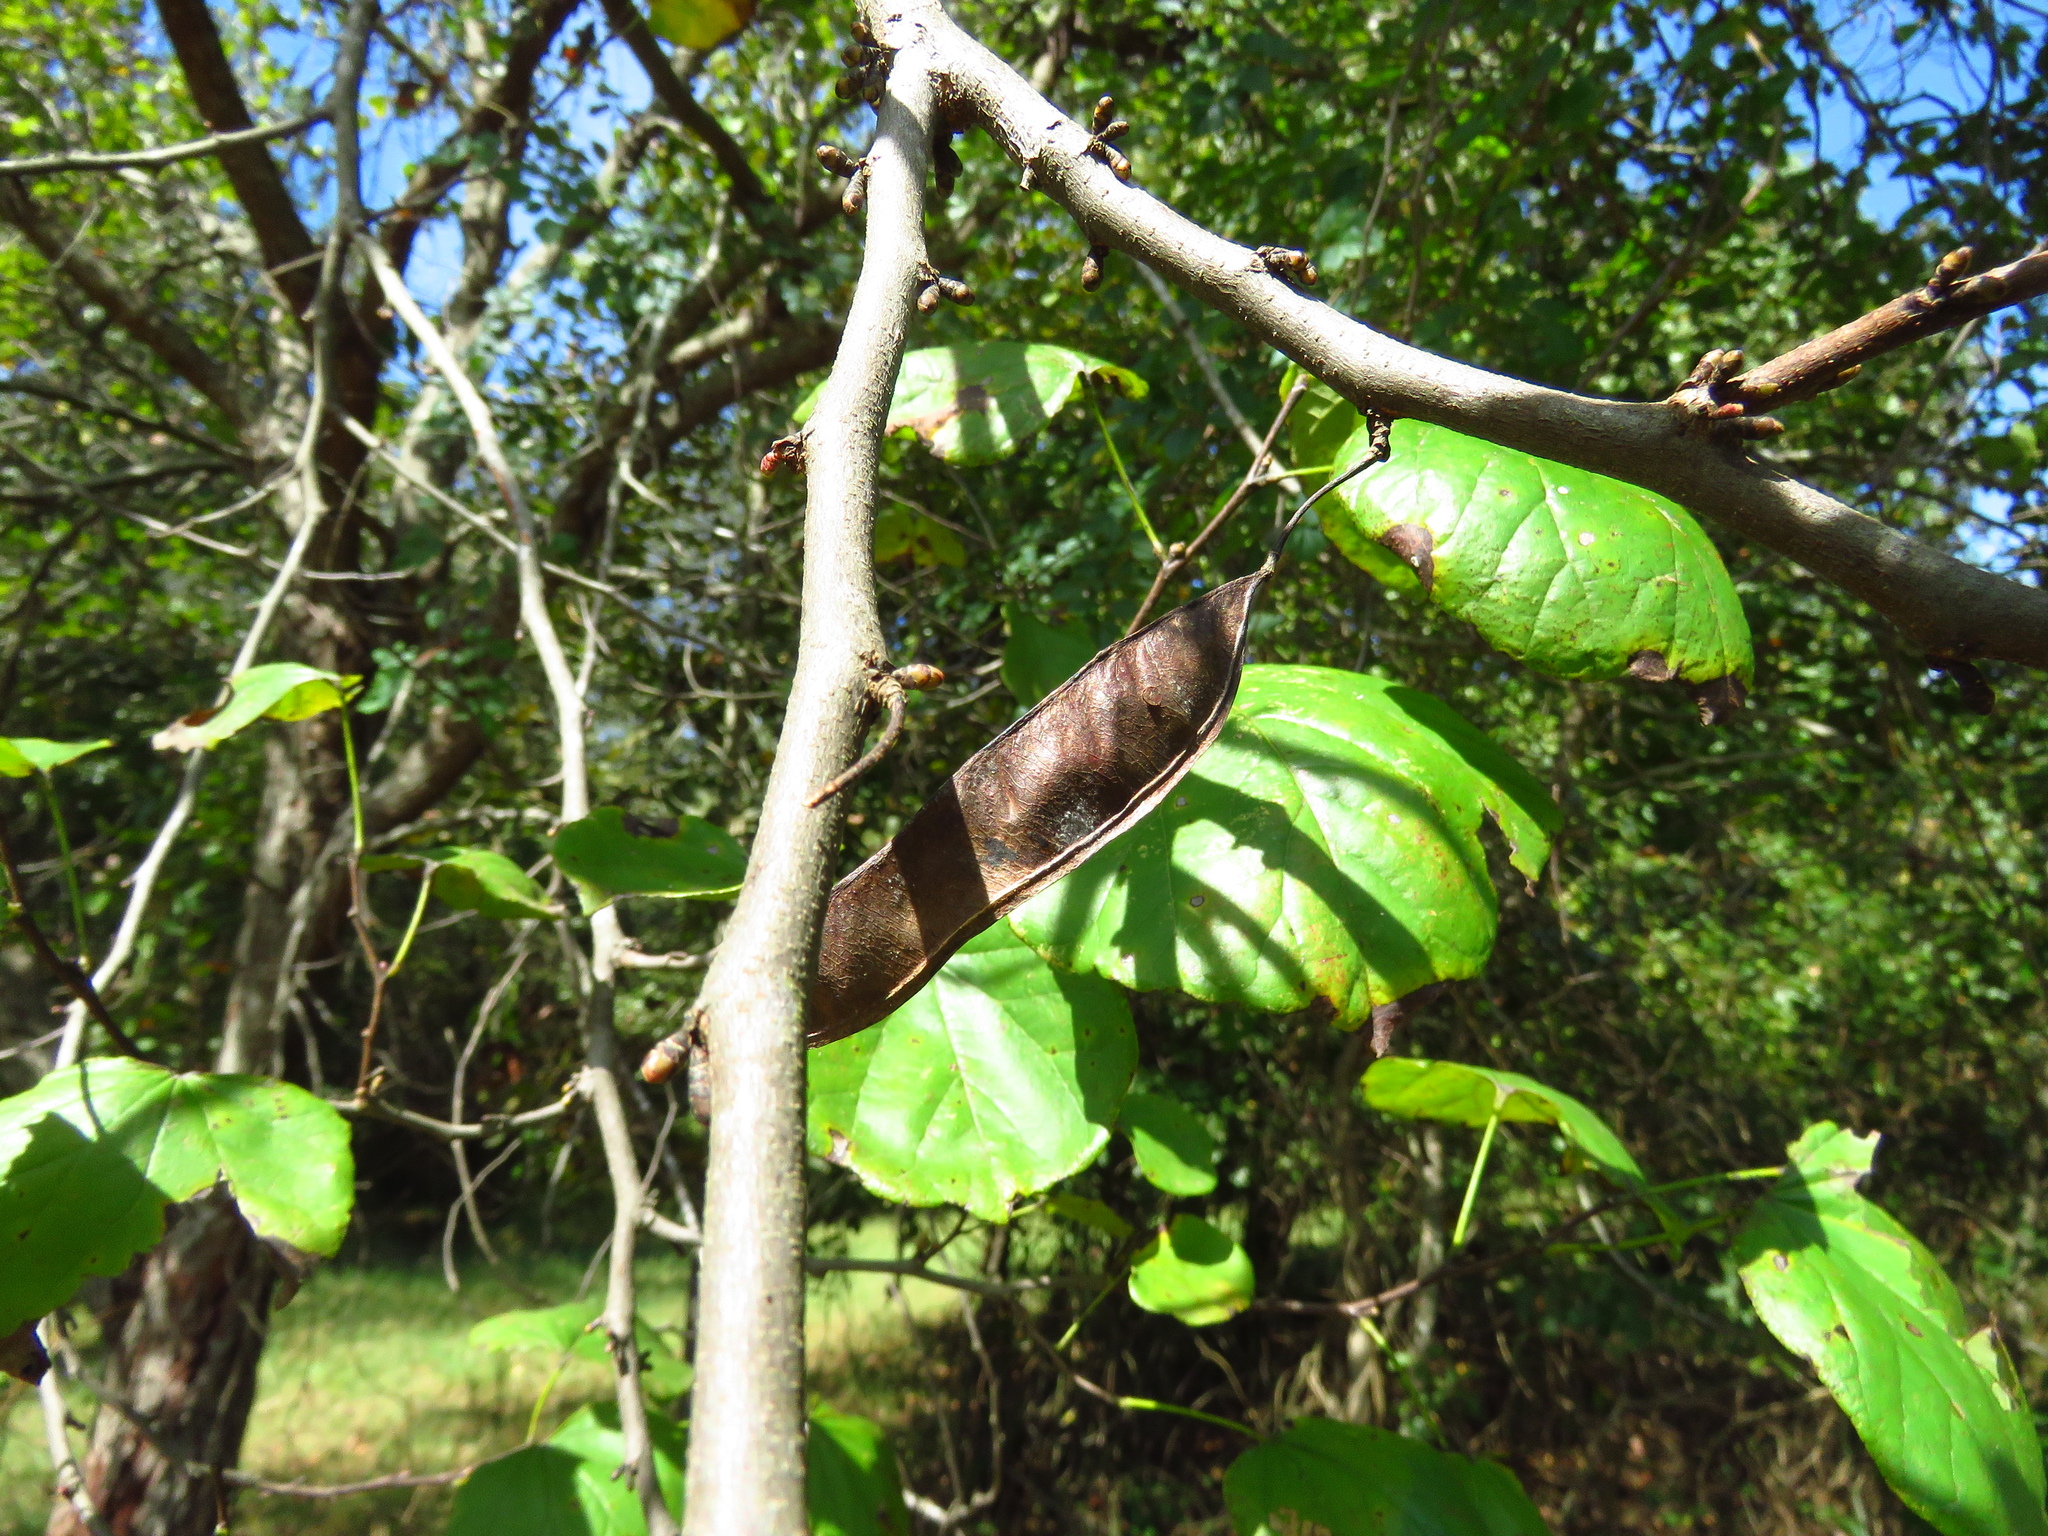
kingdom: Plantae
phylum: Tracheophyta
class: Magnoliopsida
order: Fabales
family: Fabaceae
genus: Cercis
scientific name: Cercis canadensis
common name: Eastern redbud
